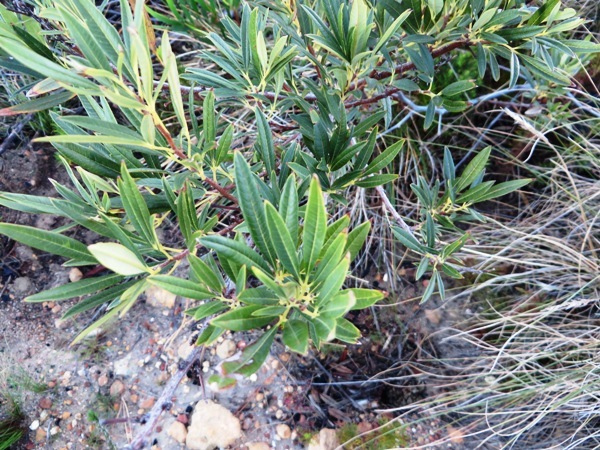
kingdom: Plantae
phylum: Tracheophyta
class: Magnoliopsida
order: Sapindales
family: Anacardiaceae
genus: Searsia
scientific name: Searsia angustifolia
